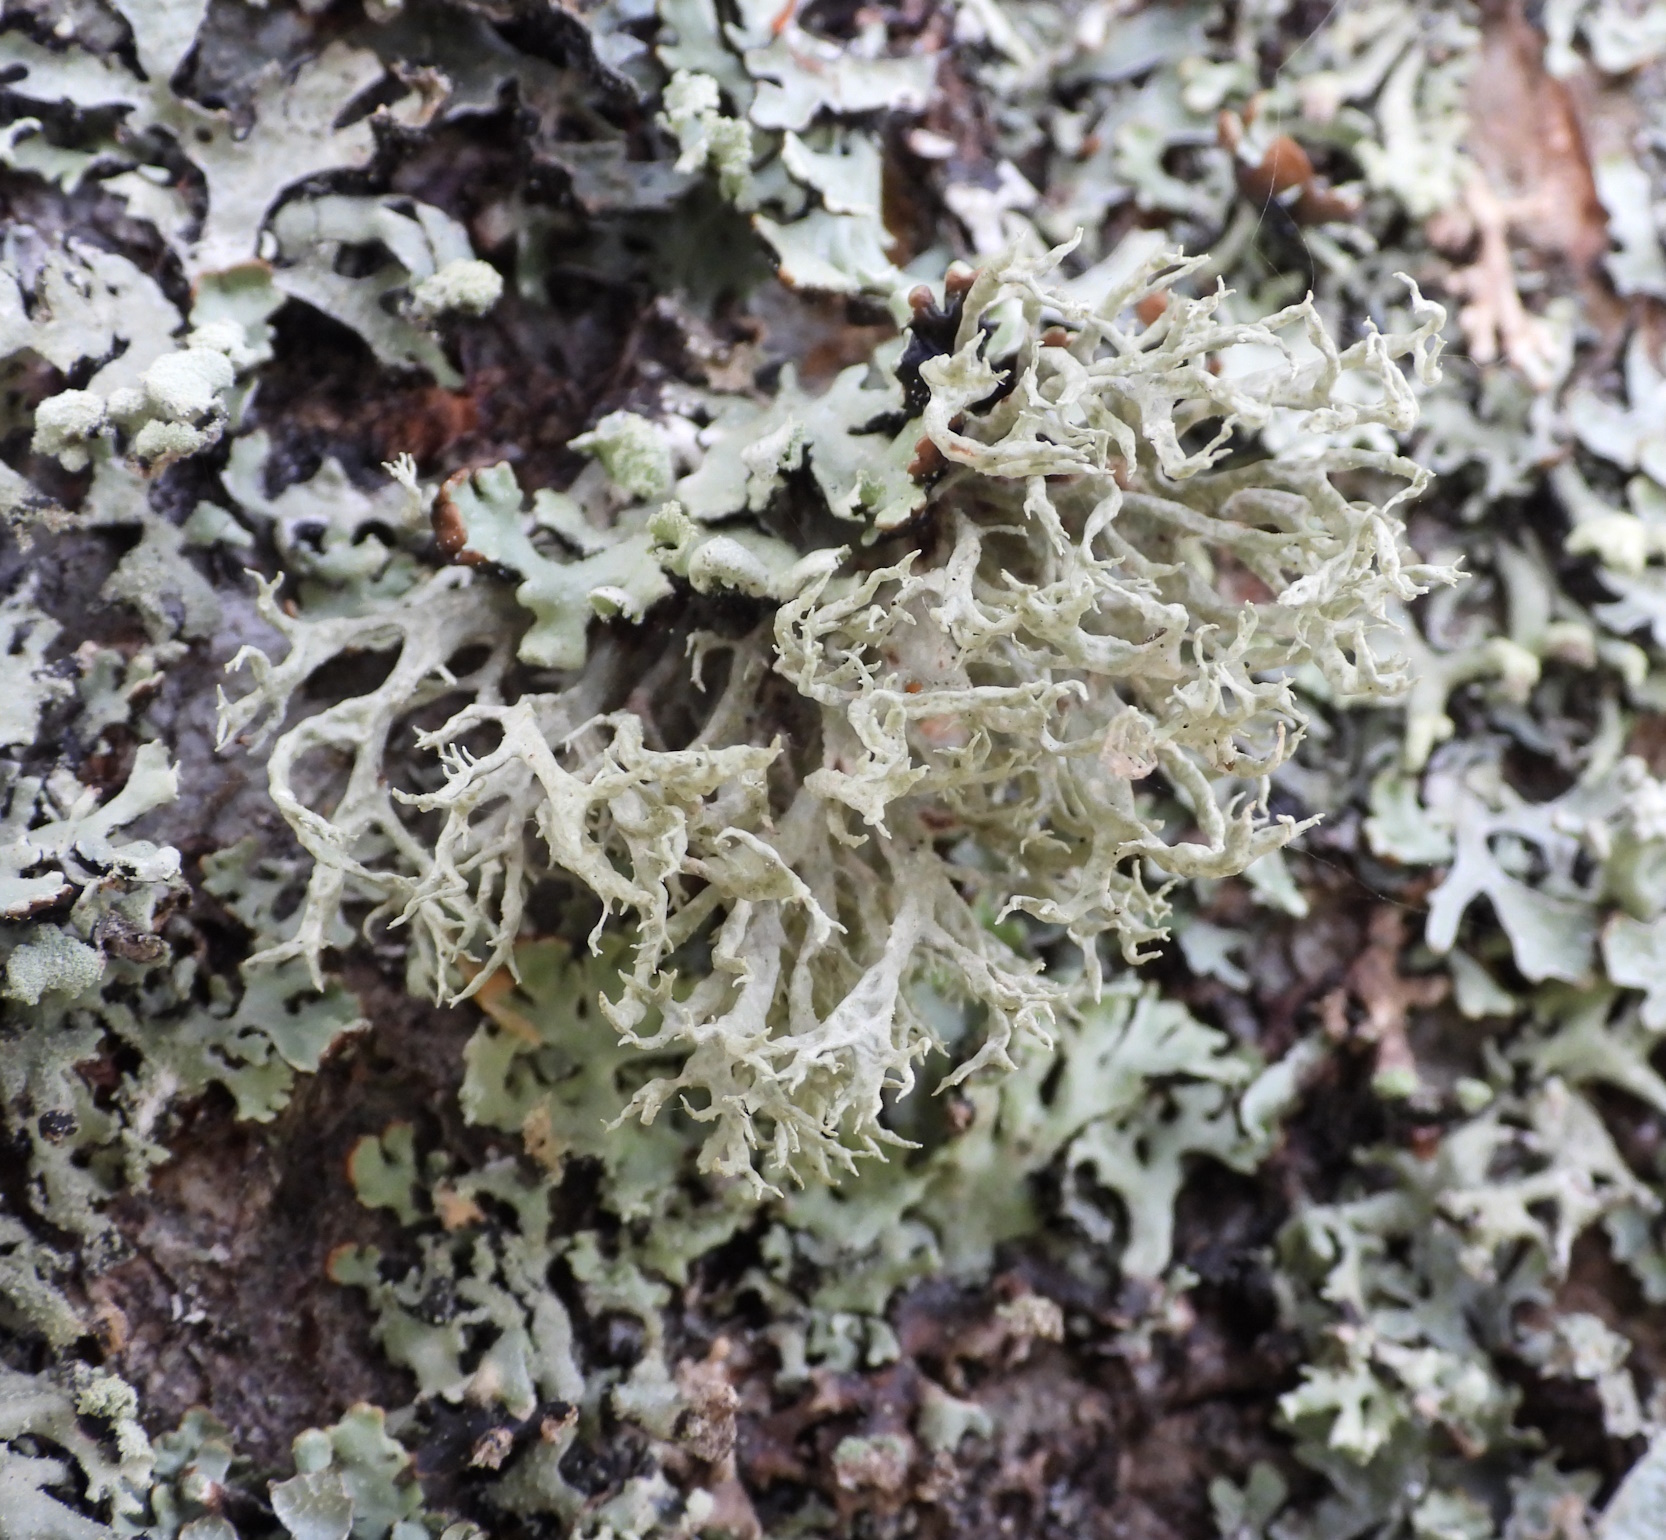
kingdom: Fungi
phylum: Ascomycota
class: Lecanoromycetes
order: Lecanorales
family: Parmeliaceae
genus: Evernia
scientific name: Evernia prunastri
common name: Oak moss
